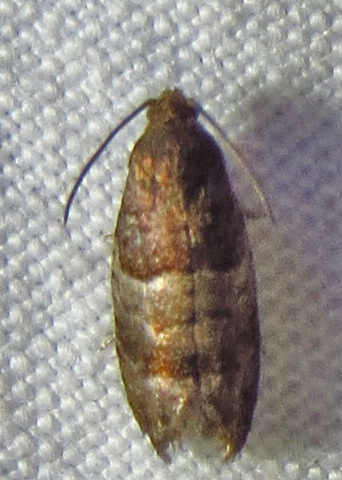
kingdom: Animalia
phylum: Arthropoda
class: Insecta
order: Lepidoptera
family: Tortricidae
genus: Larisa
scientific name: Larisa subsolana
